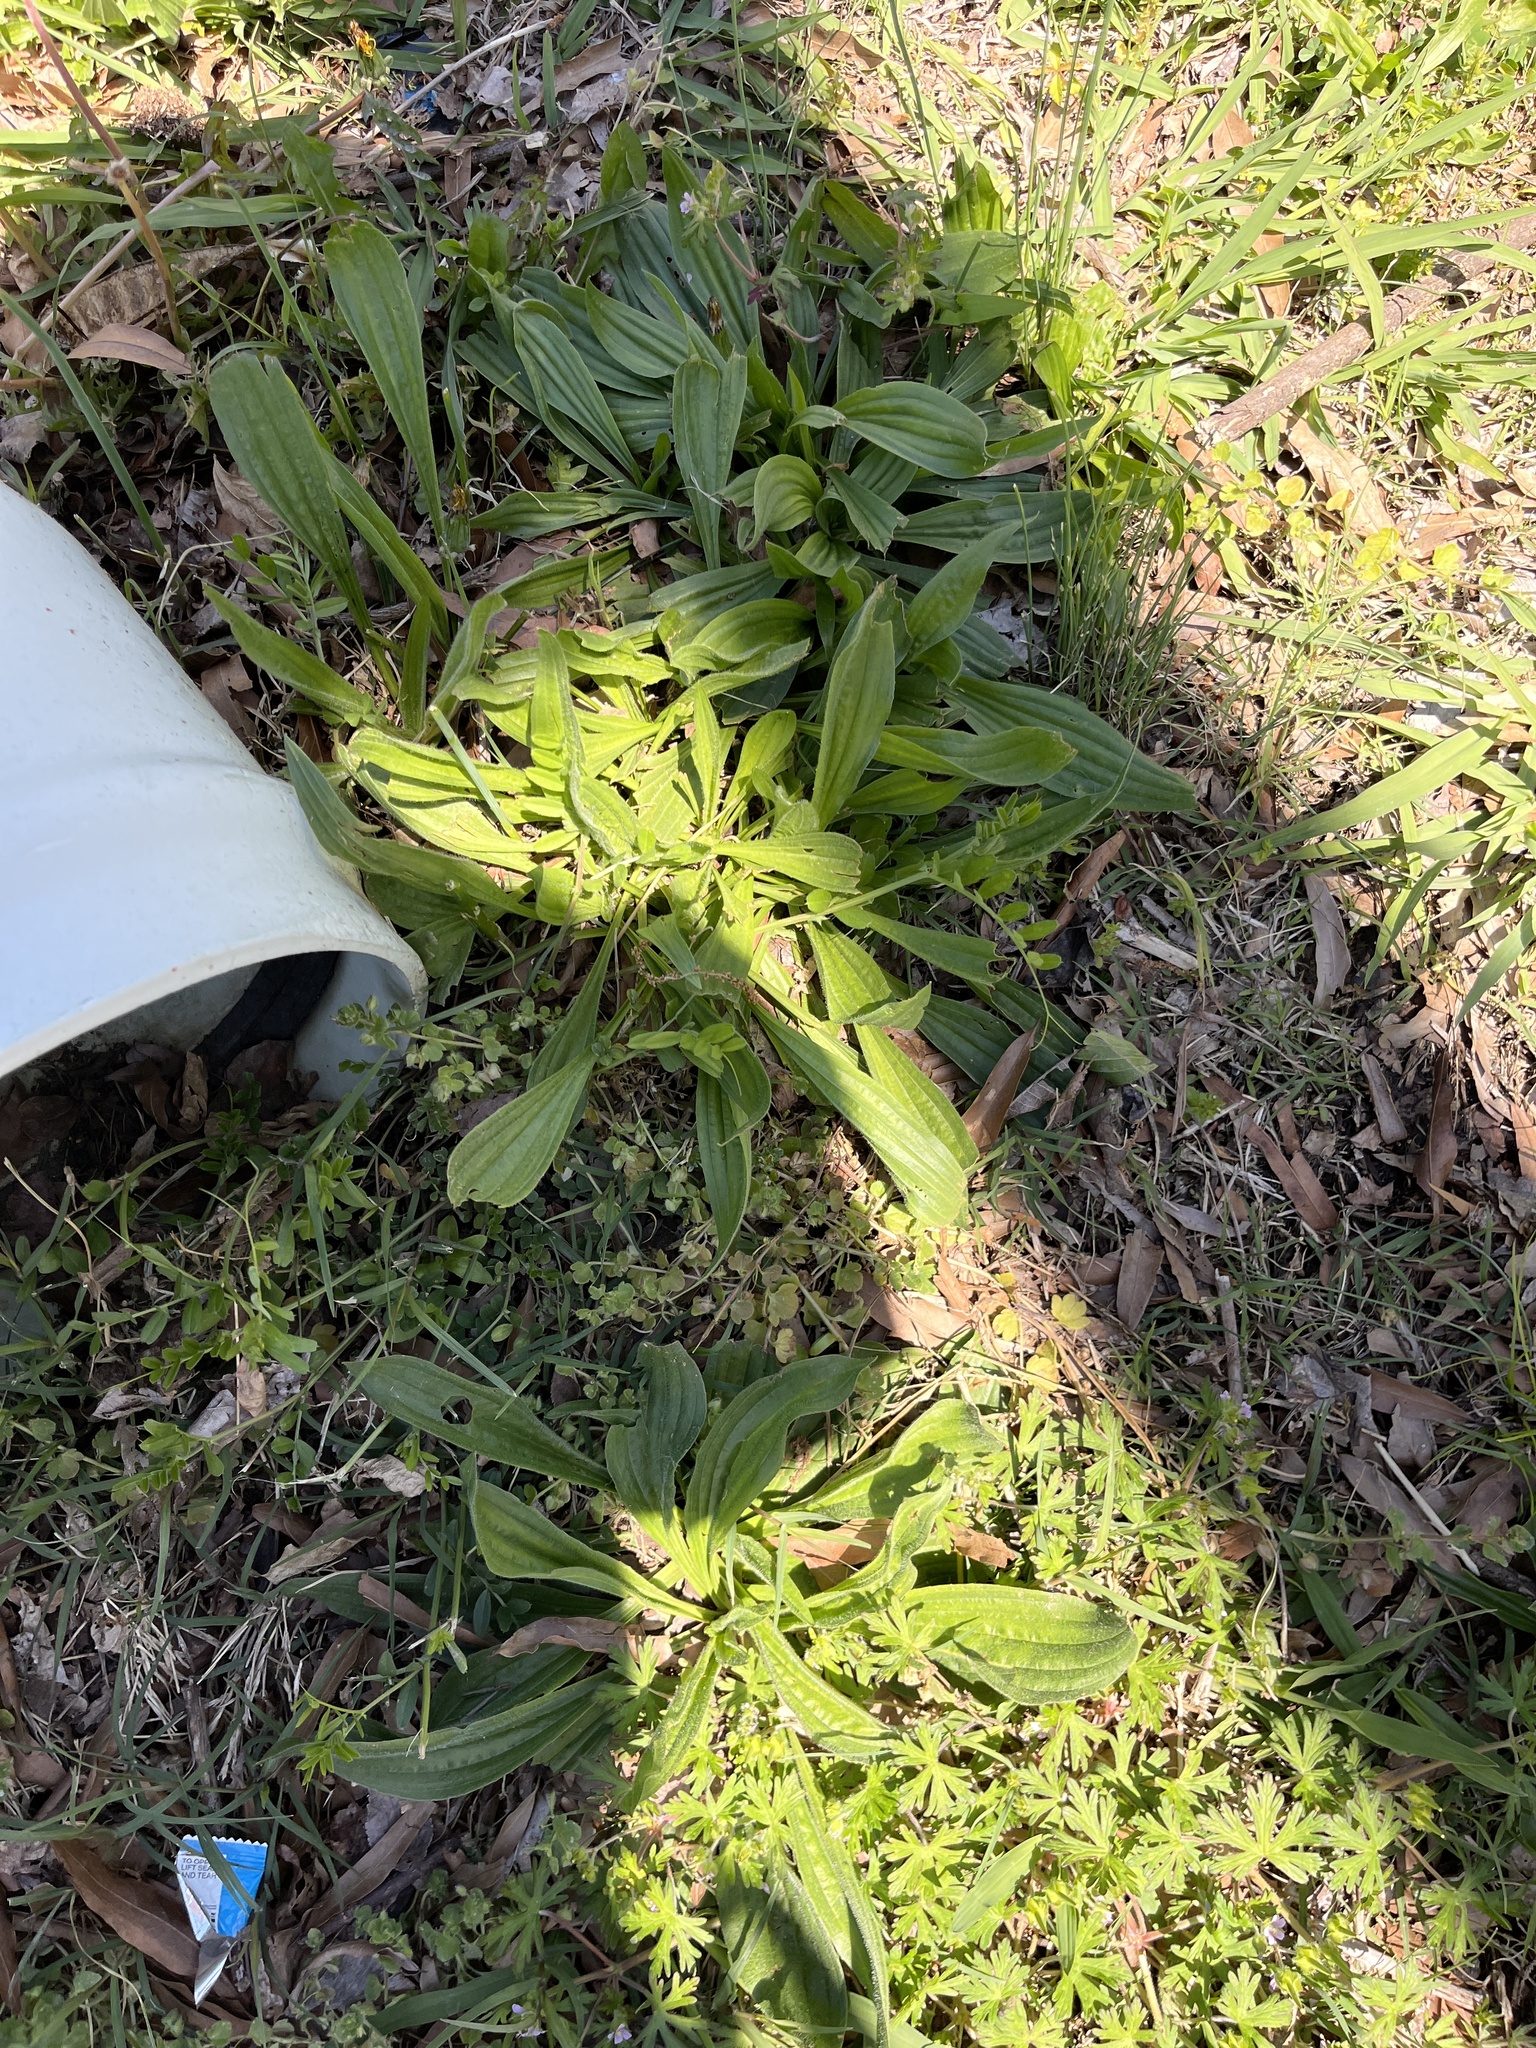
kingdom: Plantae
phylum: Tracheophyta
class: Magnoliopsida
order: Lamiales
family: Plantaginaceae
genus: Plantago
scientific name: Plantago lanceolata
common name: Ribwort plantain
